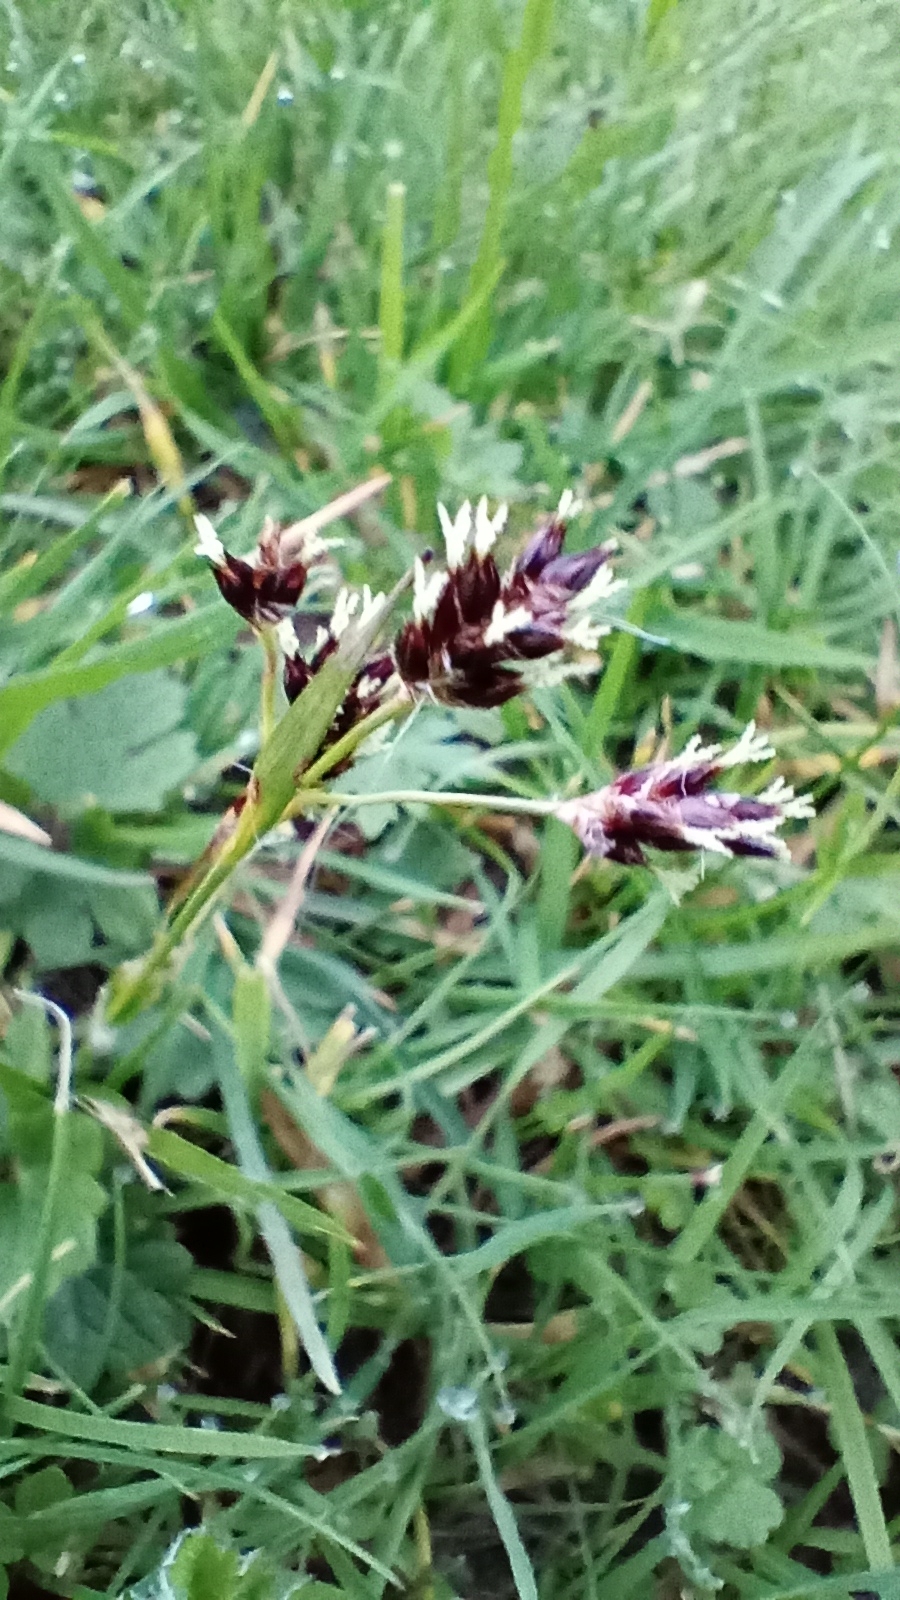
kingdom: Plantae
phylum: Tracheophyta
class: Liliopsida
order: Poales
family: Juncaceae
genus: Luzula
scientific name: Luzula campestris
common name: Field wood-rush
